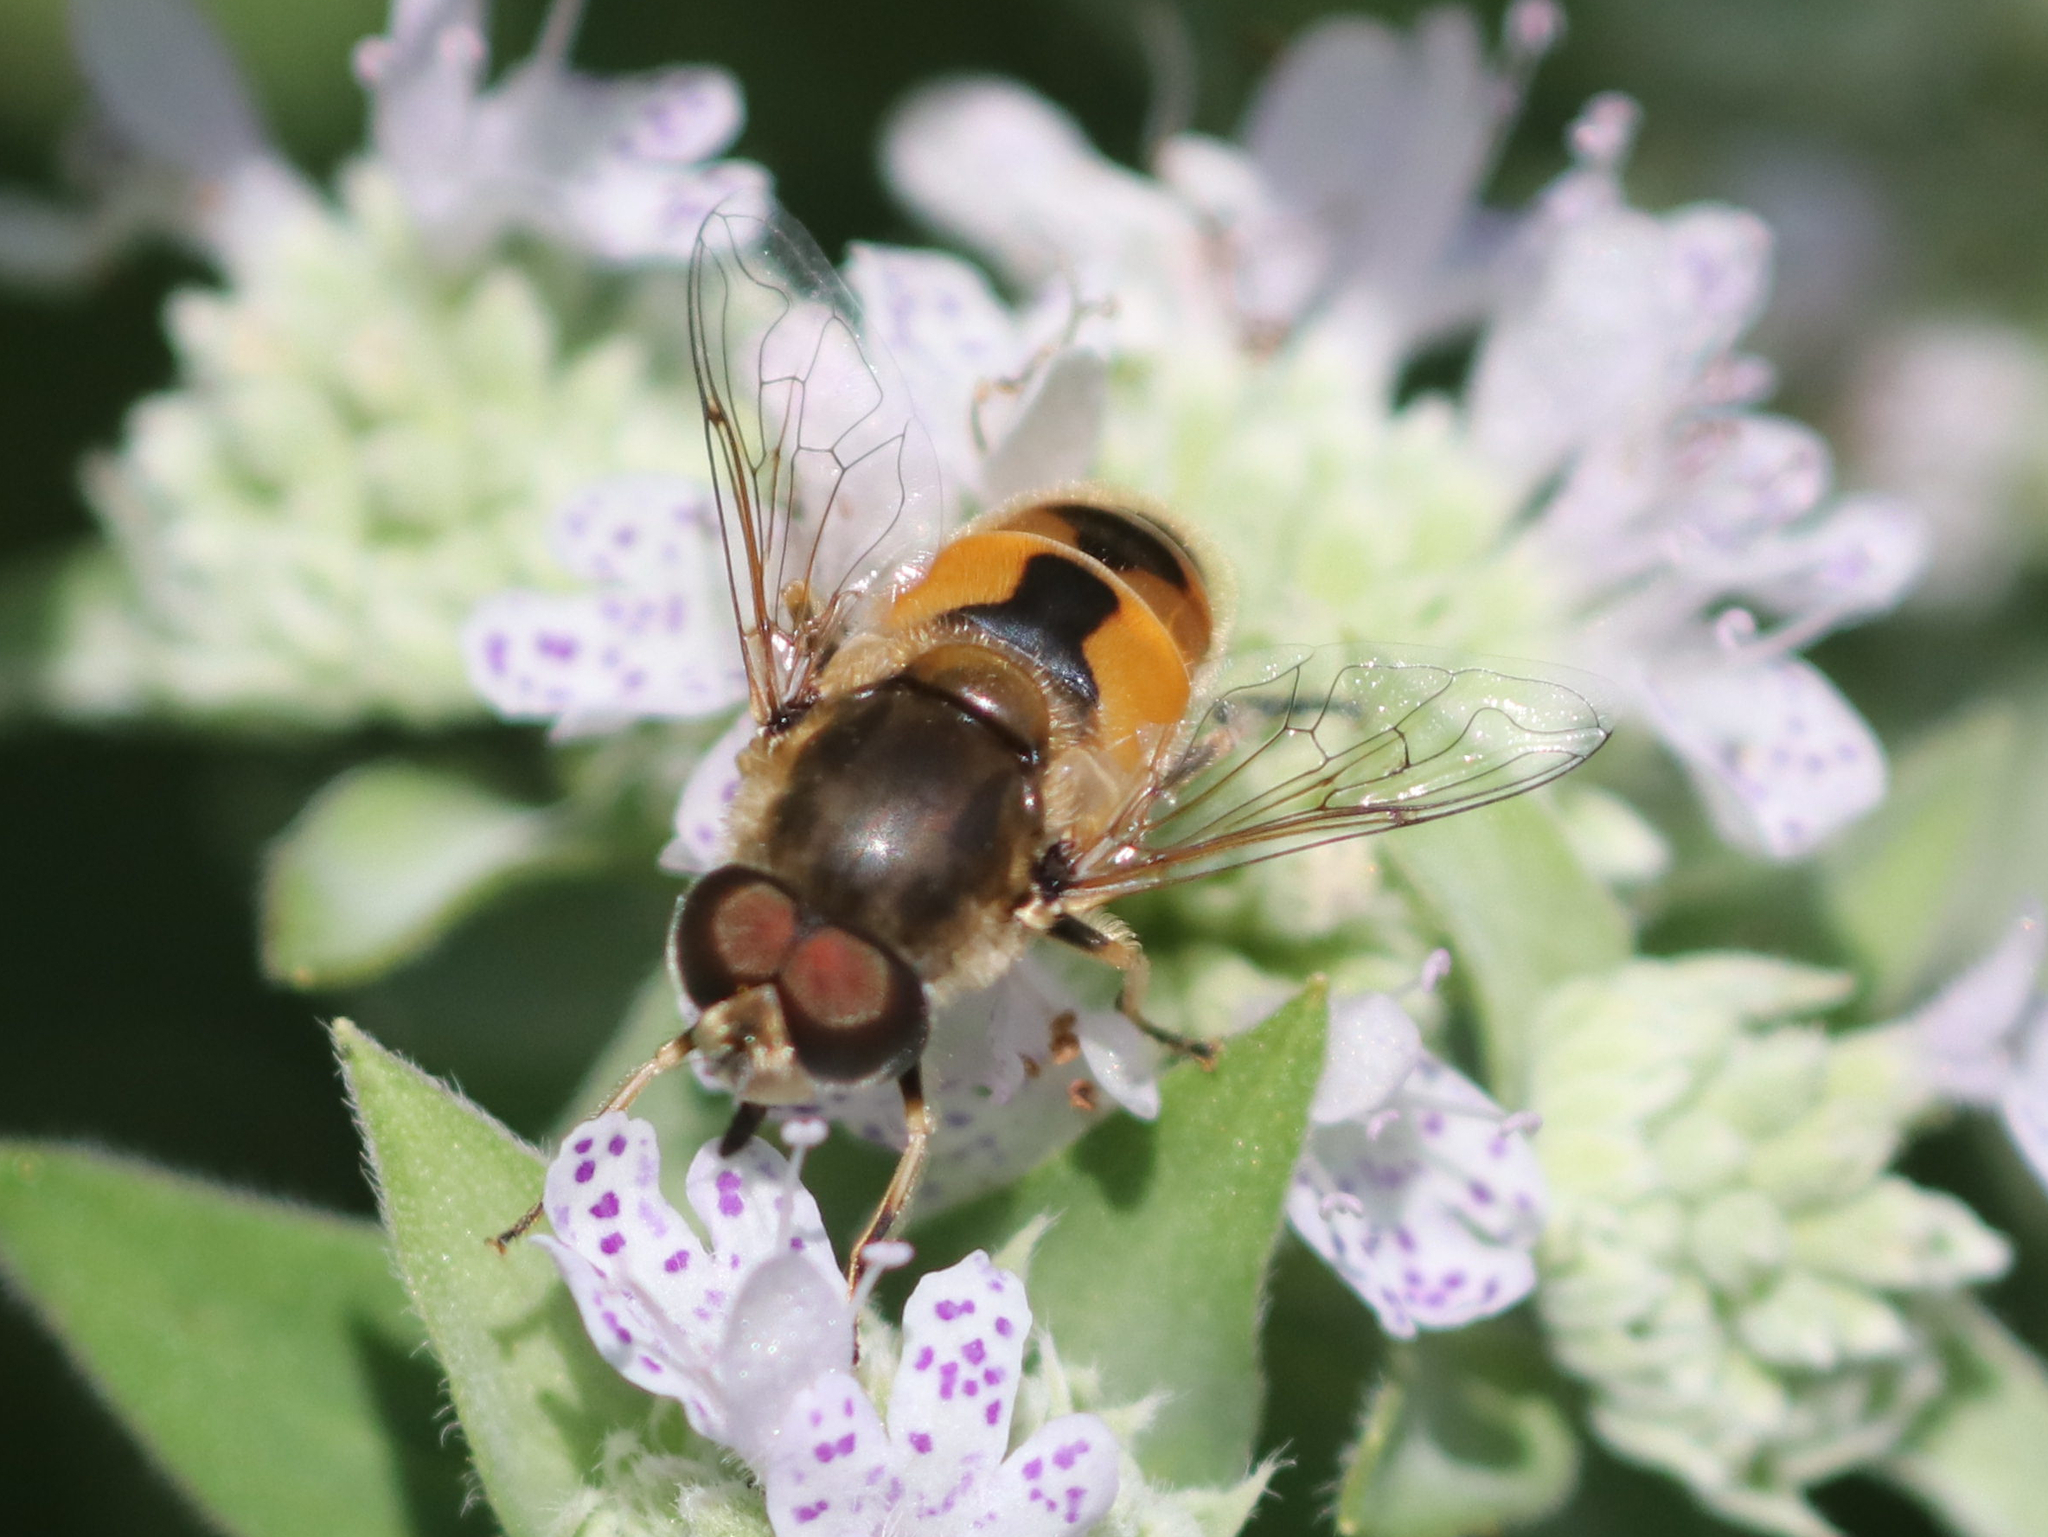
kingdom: Animalia
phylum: Arthropoda
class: Insecta
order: Diptera
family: Syrphidae
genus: Eristalis
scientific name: Eristalis arbustorum
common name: Hover fly
